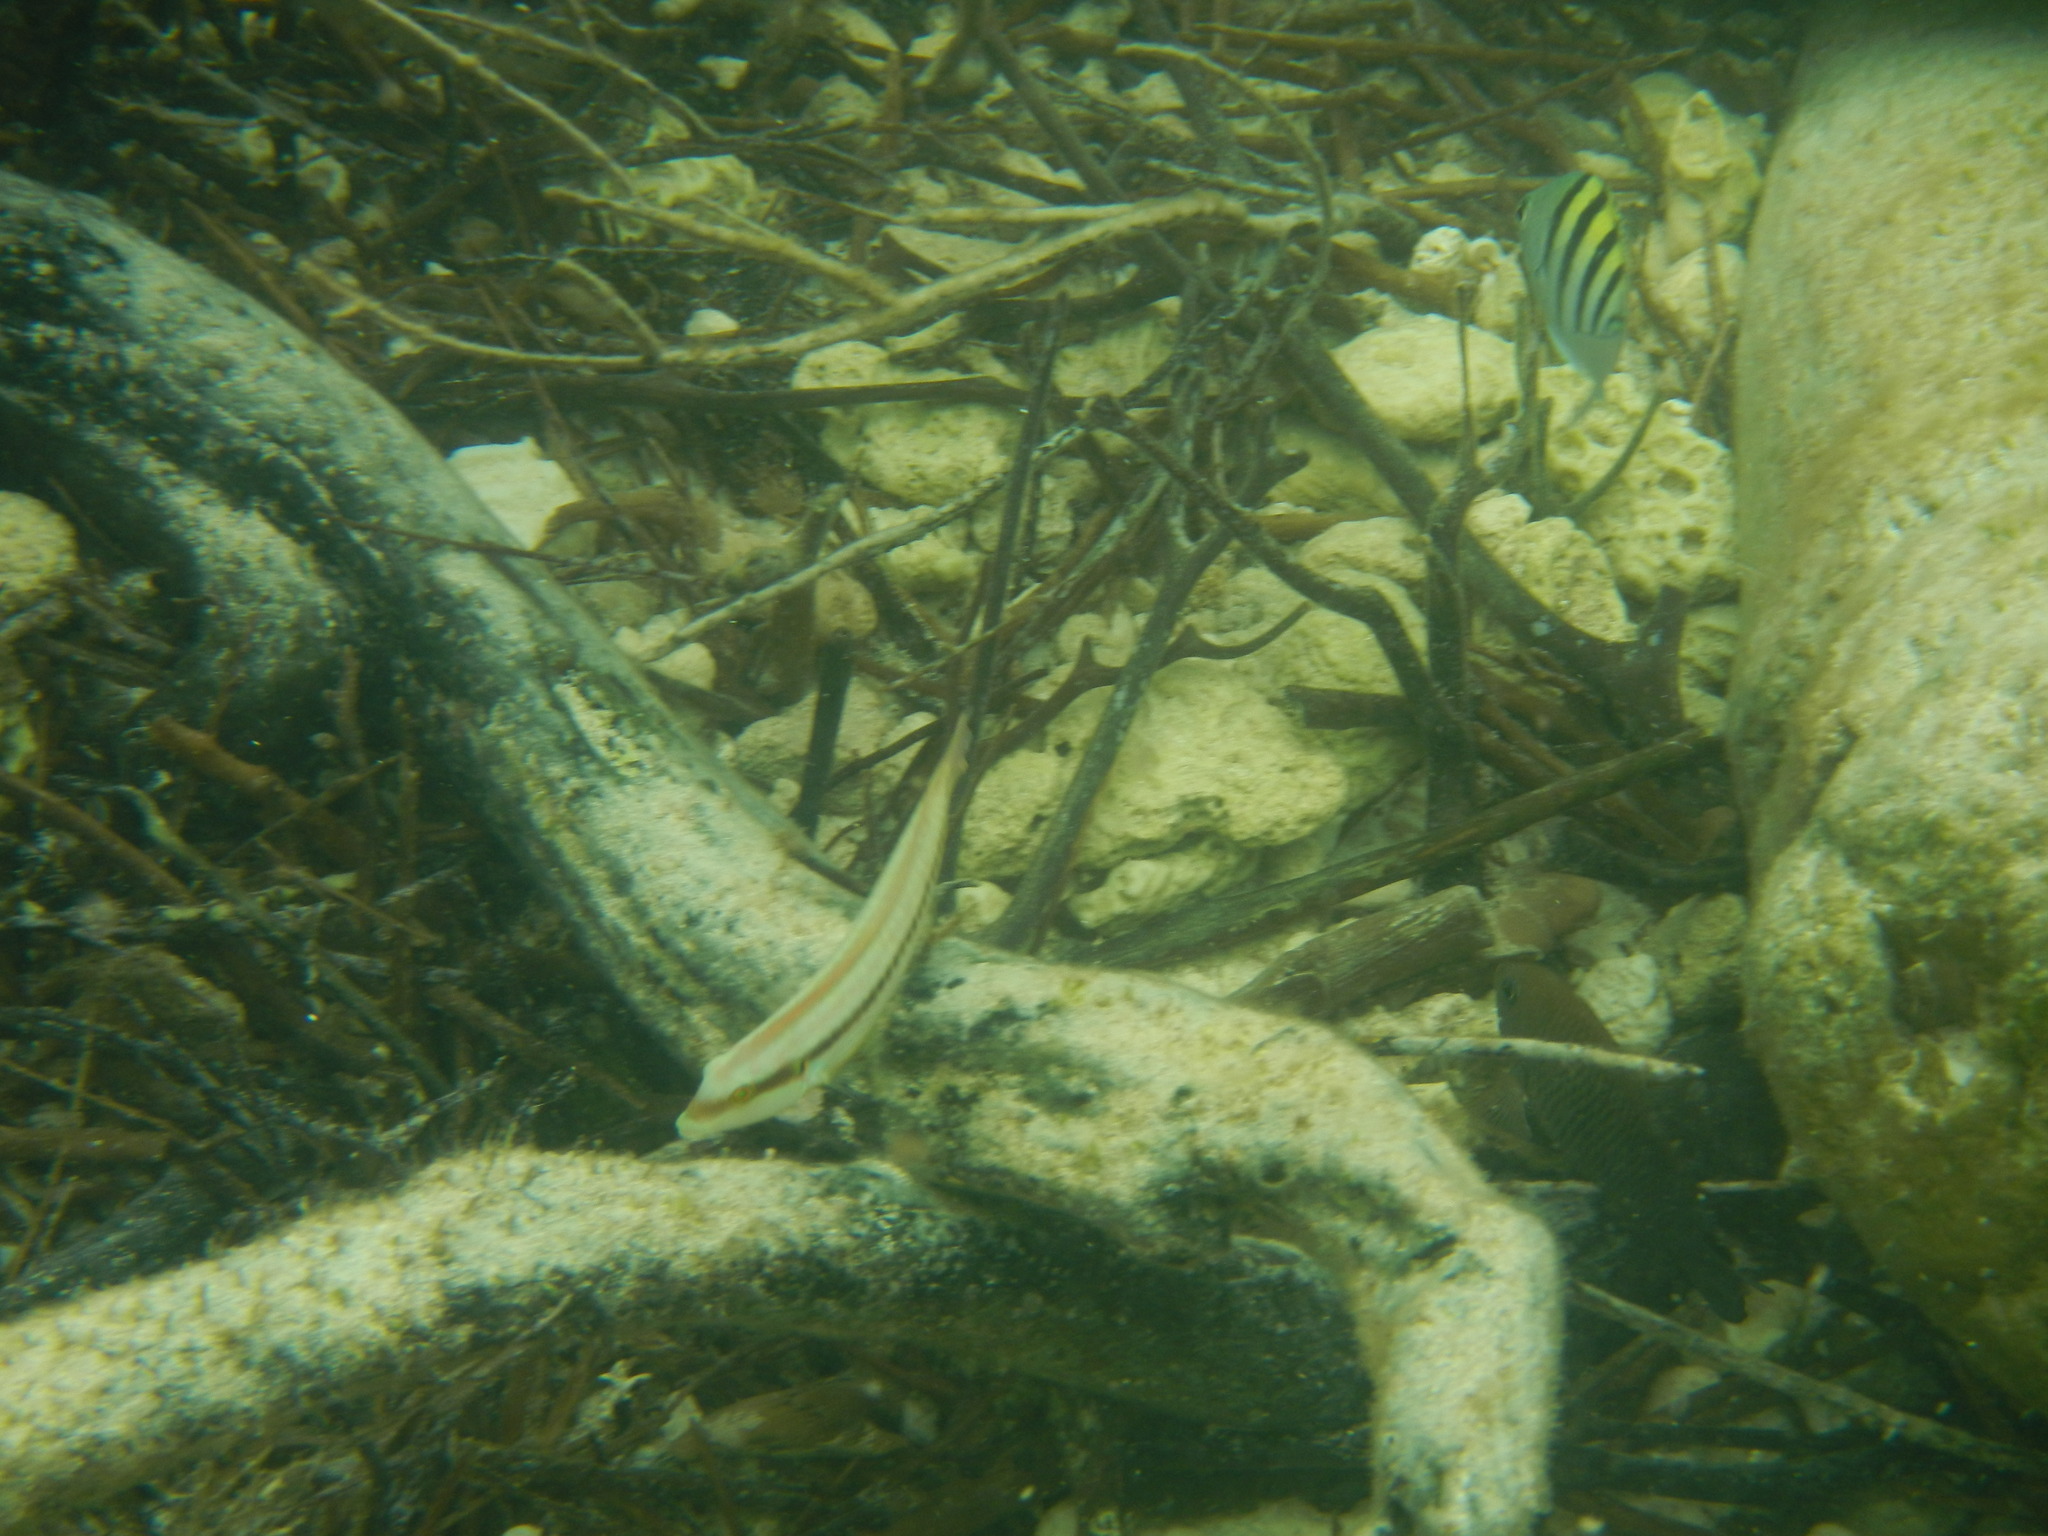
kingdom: Animalia
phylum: Chordata
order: Perciformes
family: Labridae
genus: Halichoeres
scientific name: Halichoeres bivittatus
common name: Slippery dick
